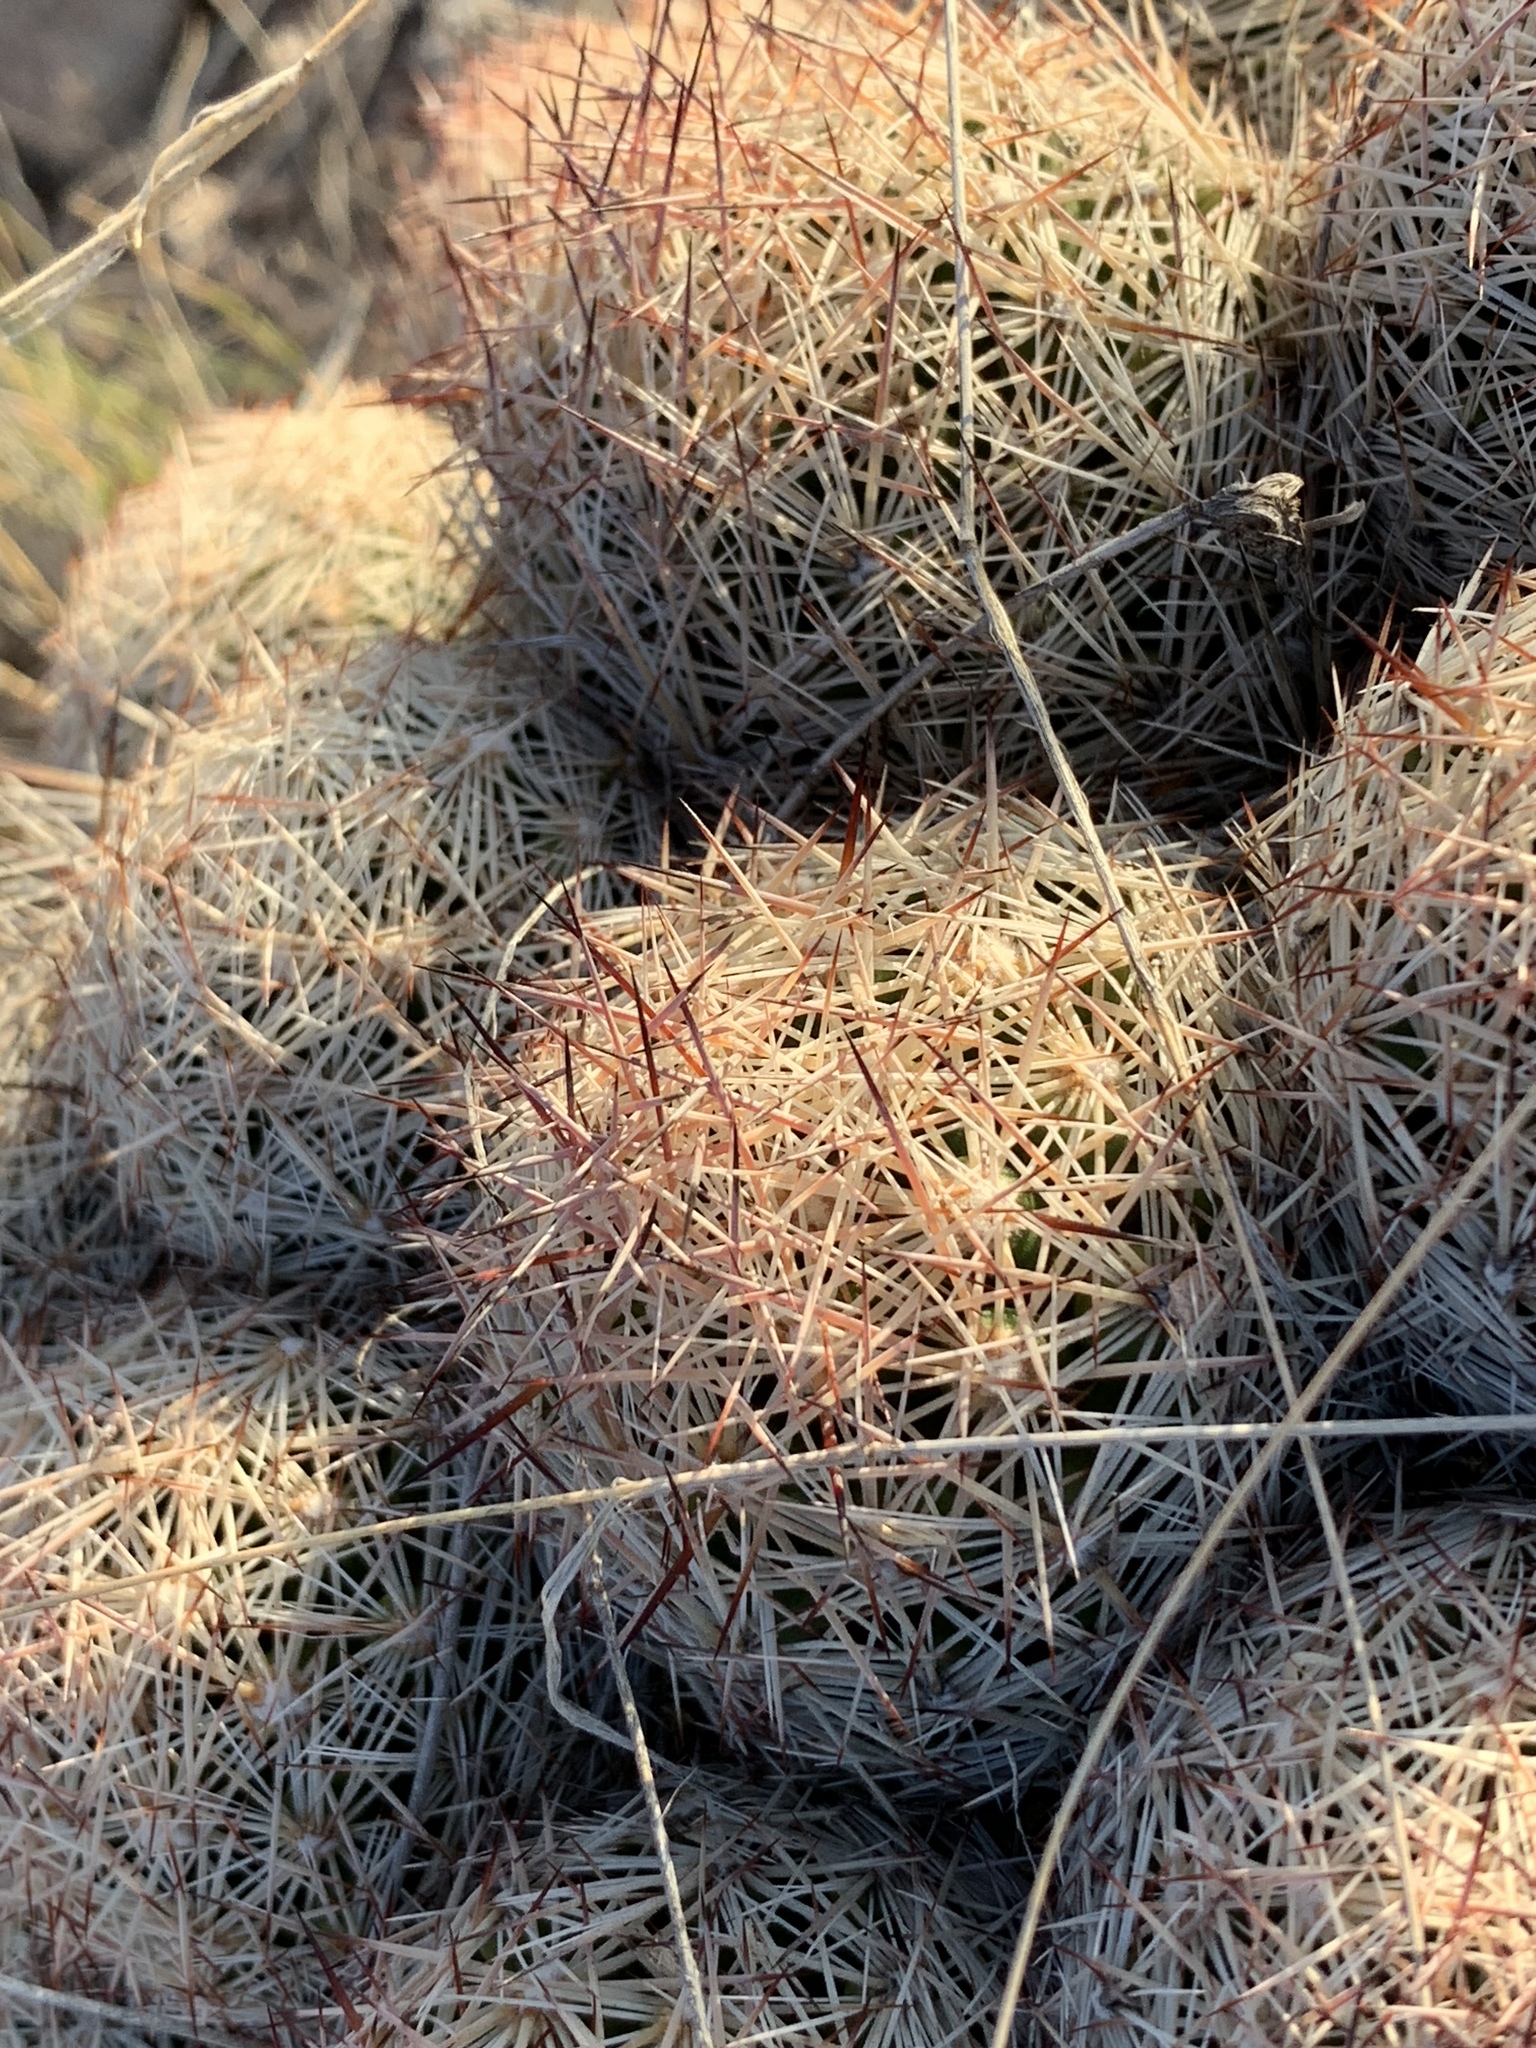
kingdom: Plantae
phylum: Tracheophyta
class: Magnoliopsida
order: Caryophyllales
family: Cactaceae
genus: Pelecyphora
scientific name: Pelecyphora vivipara
